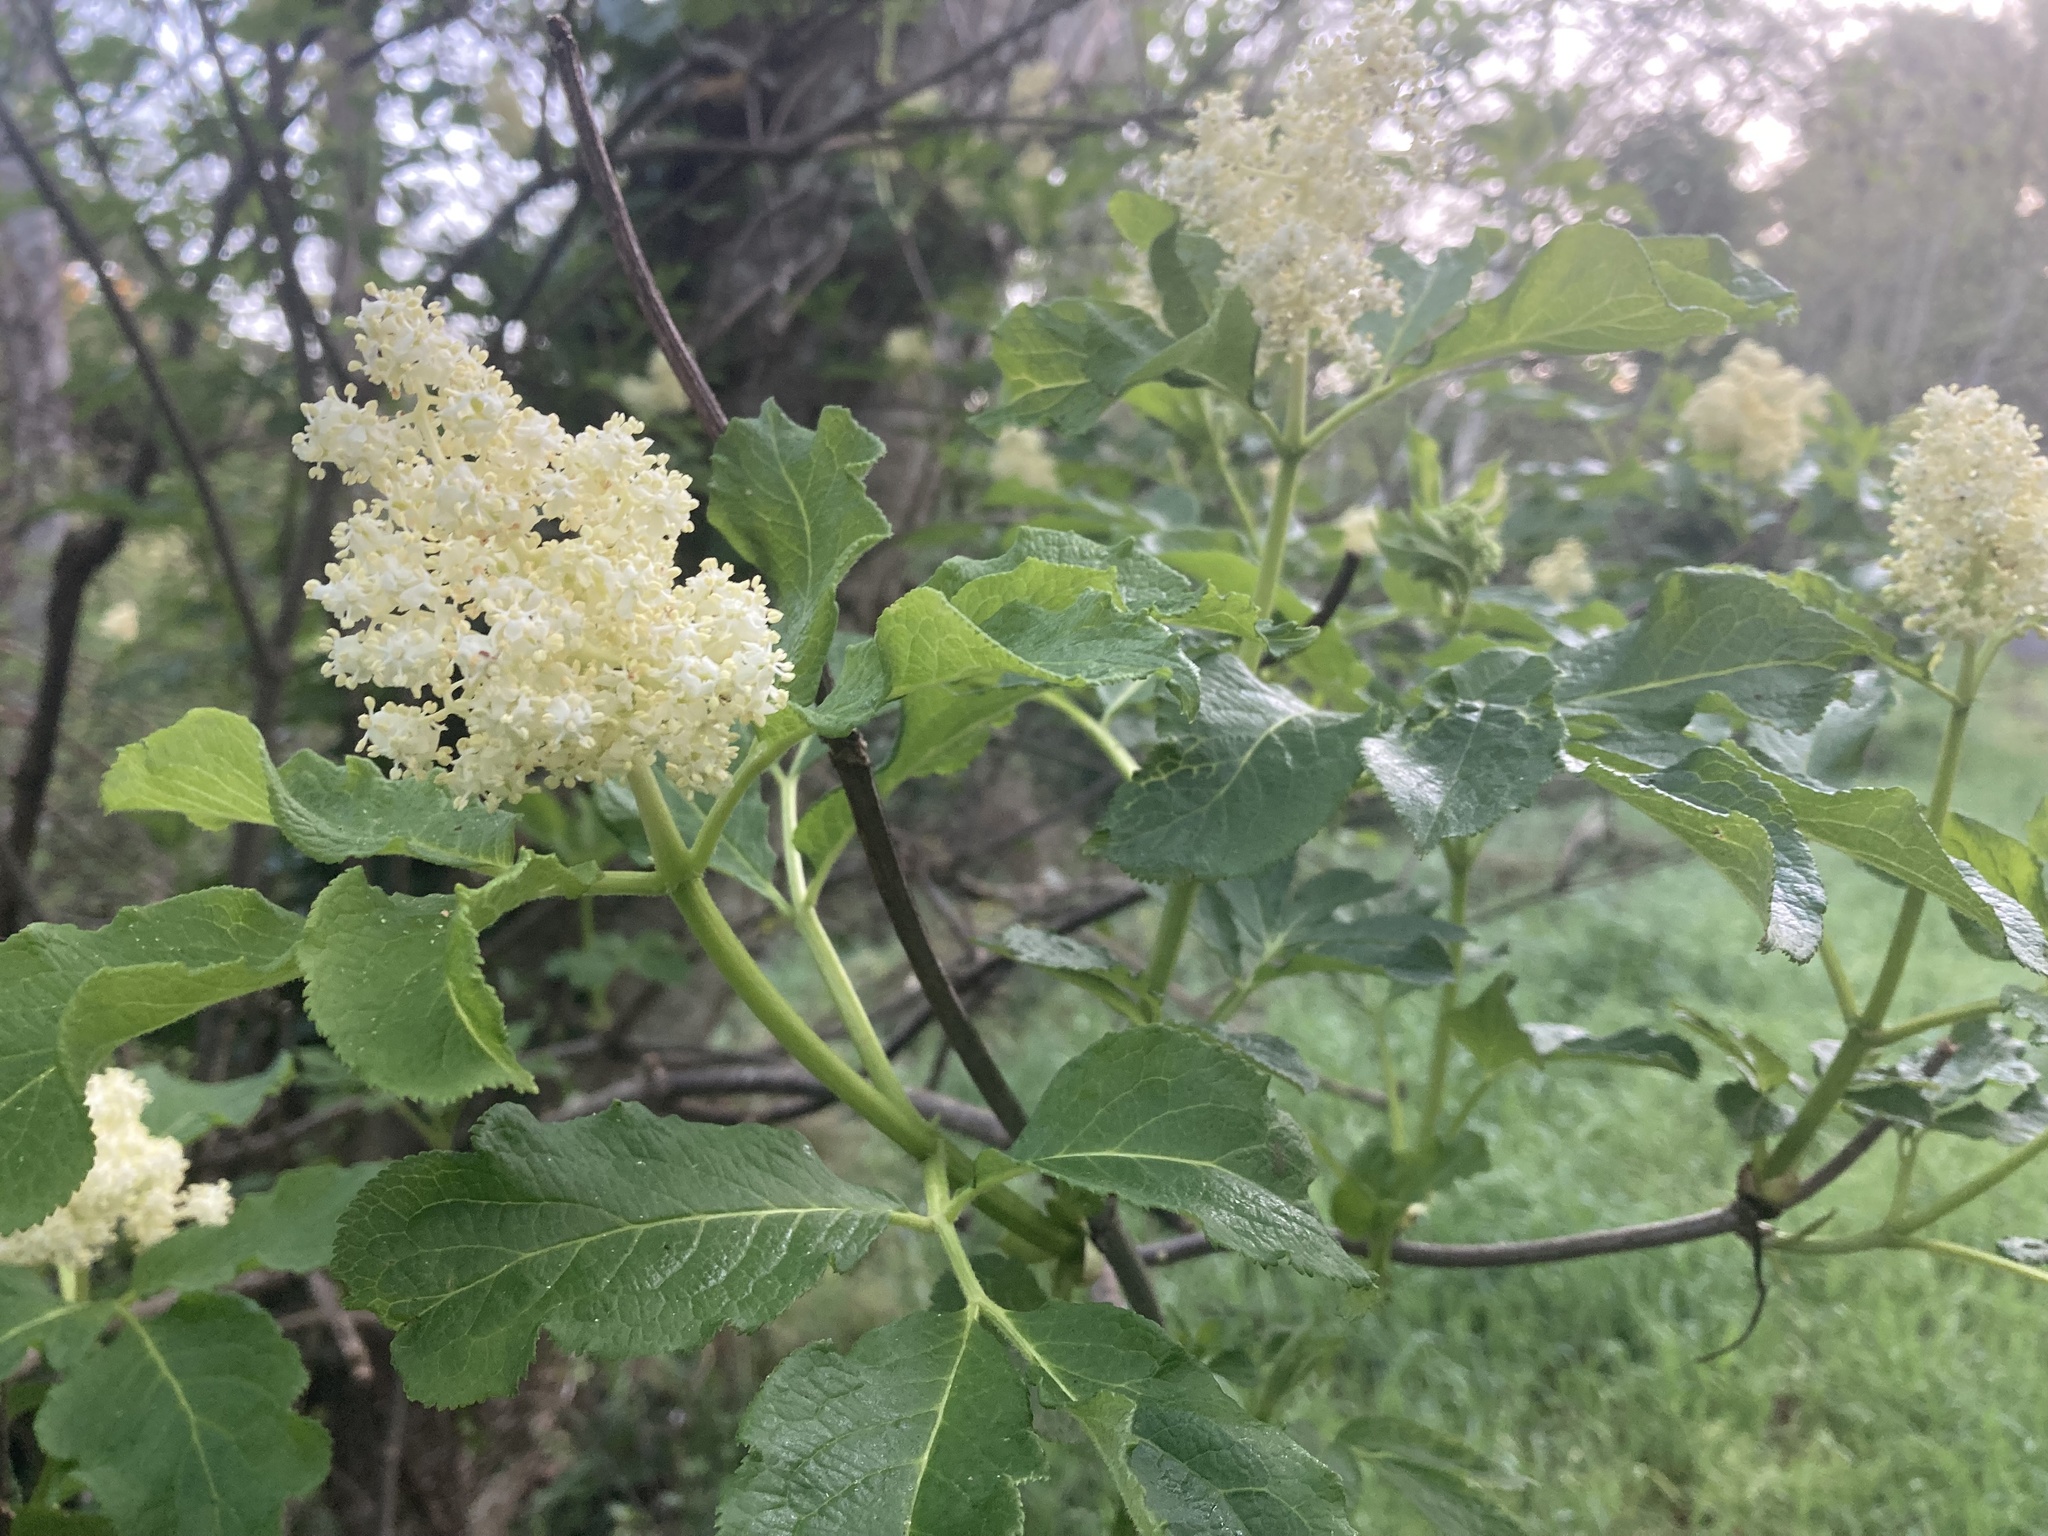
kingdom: Plantae
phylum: Tracheophyta
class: Magnoliopsida
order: Dipsacales
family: Viburnaceae
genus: Sambucus
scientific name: Sambucus racemosa
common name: Red-berried elder
